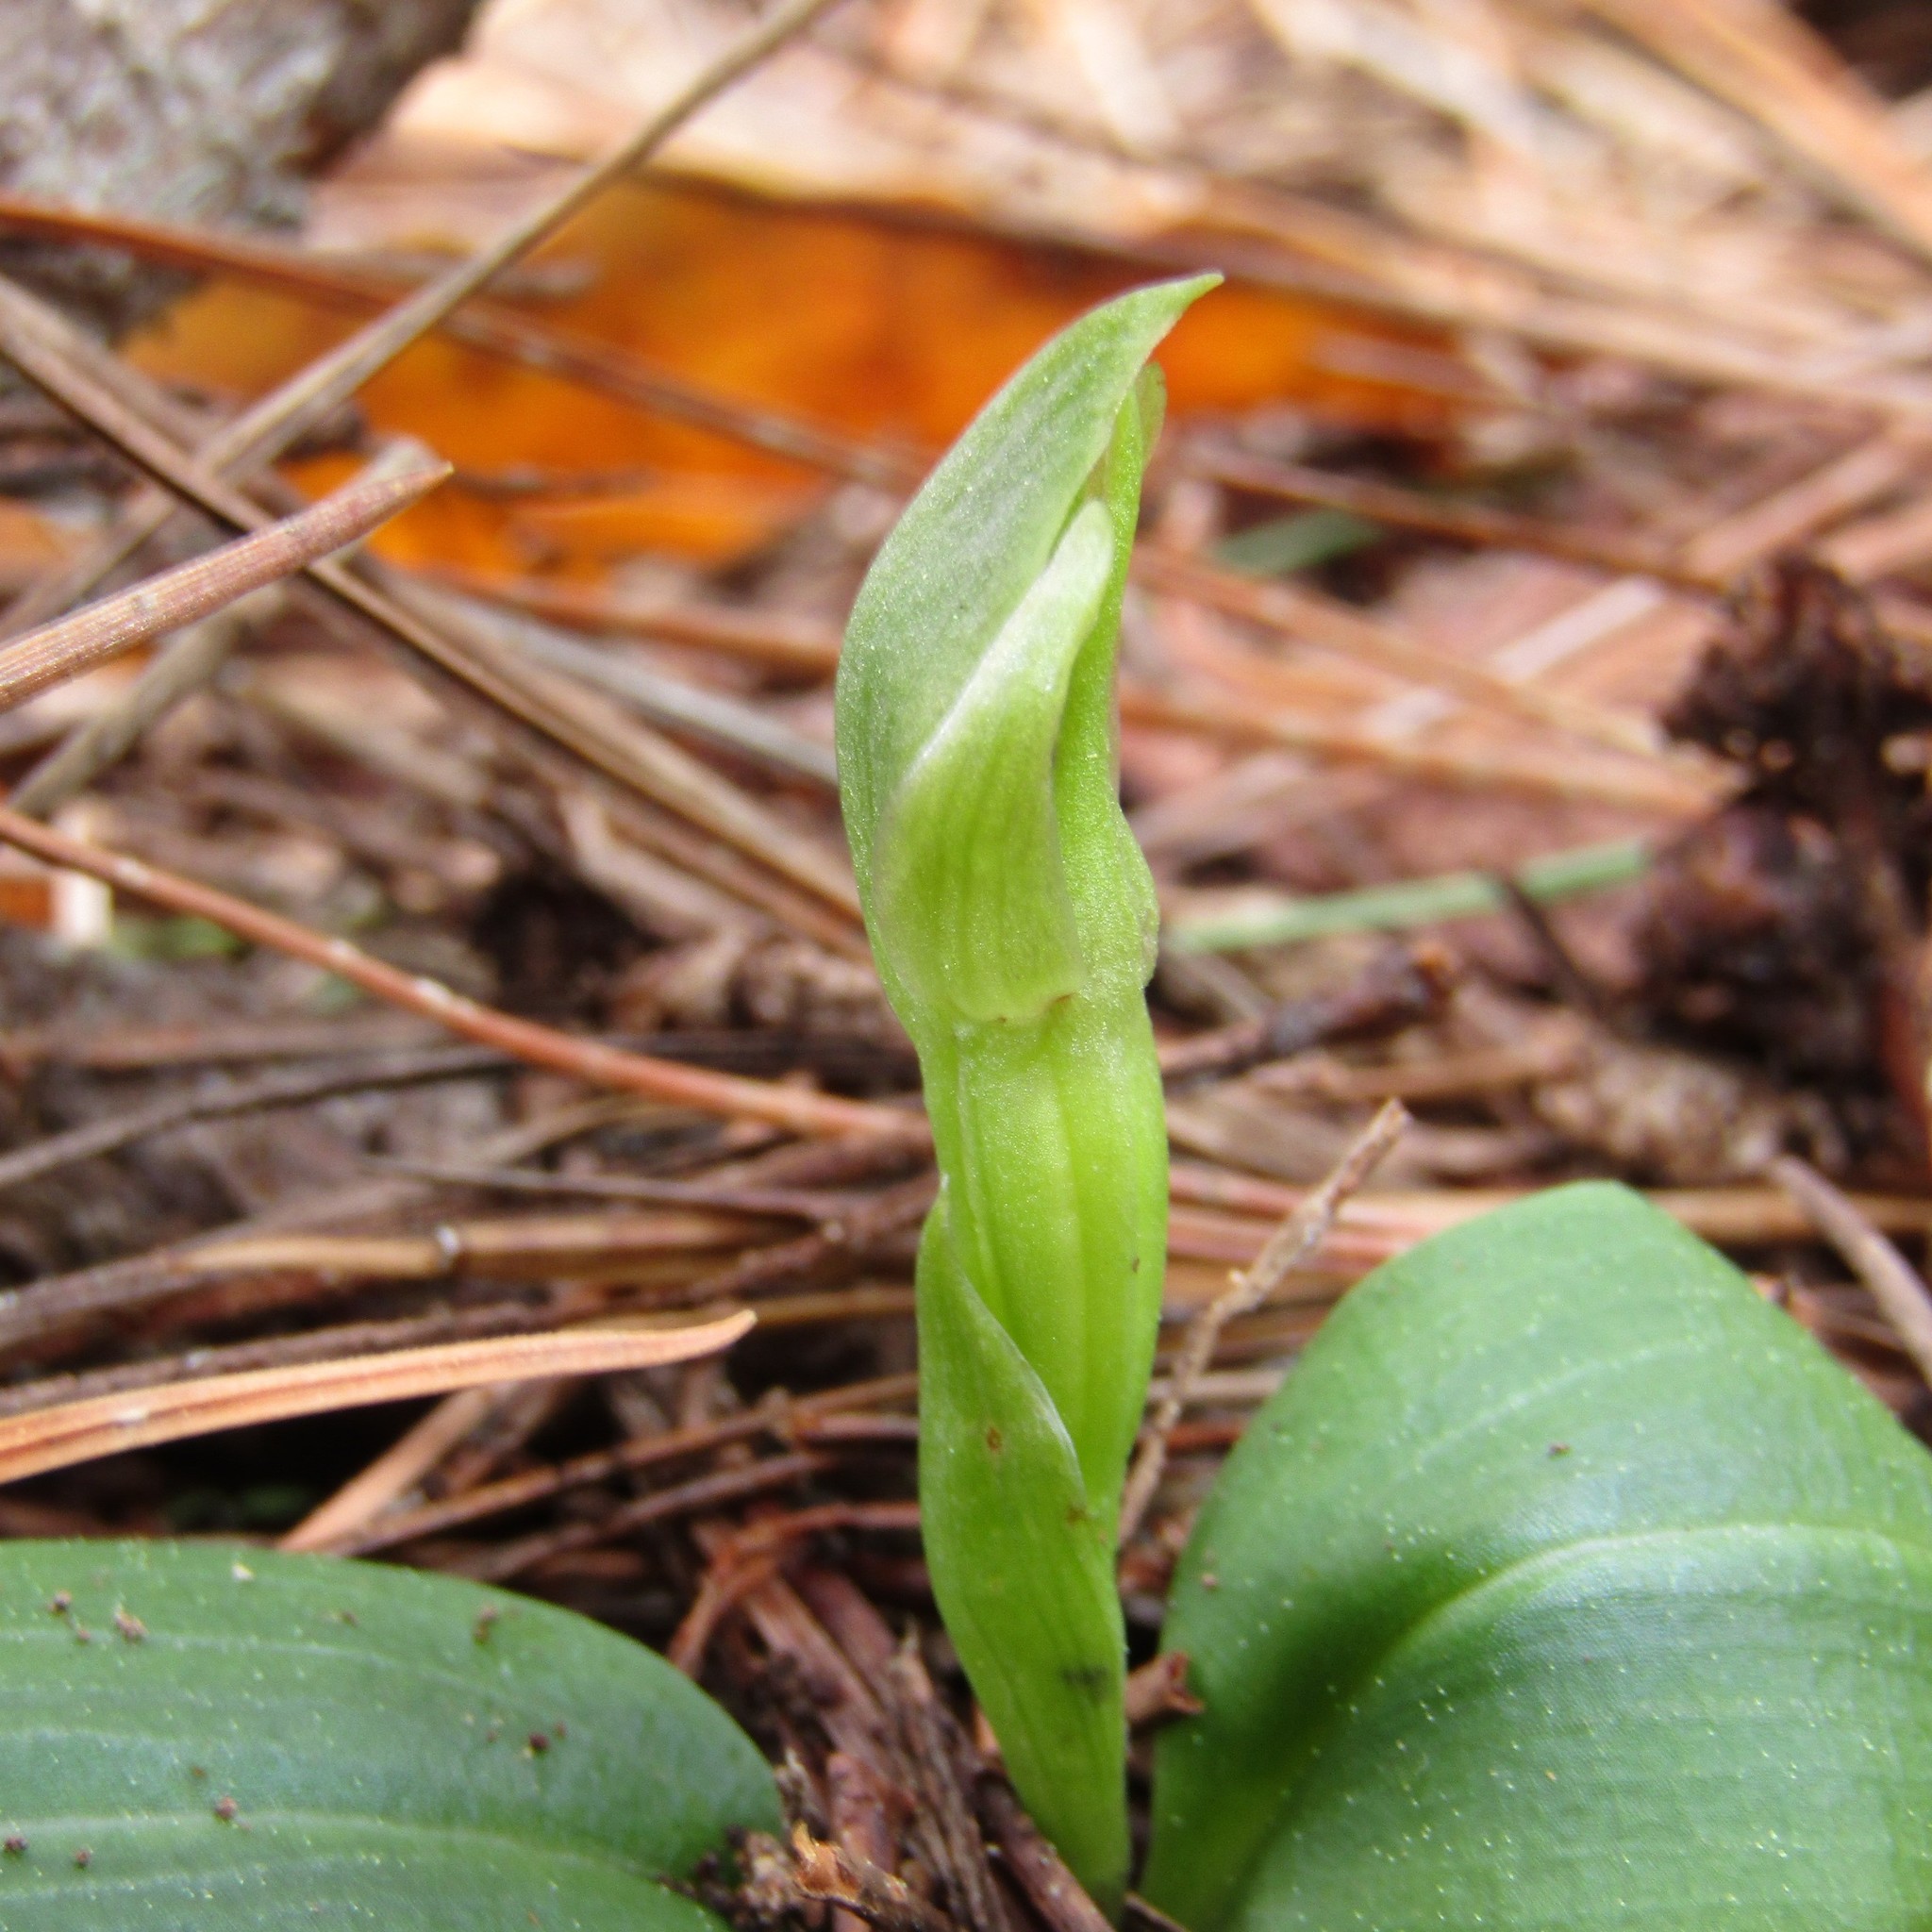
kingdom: Plantae
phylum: Tracheophyta
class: Liliopsida
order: Asparagales
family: Orchidaceae
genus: Chiloglottis
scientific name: Chiloglottis cornuta
